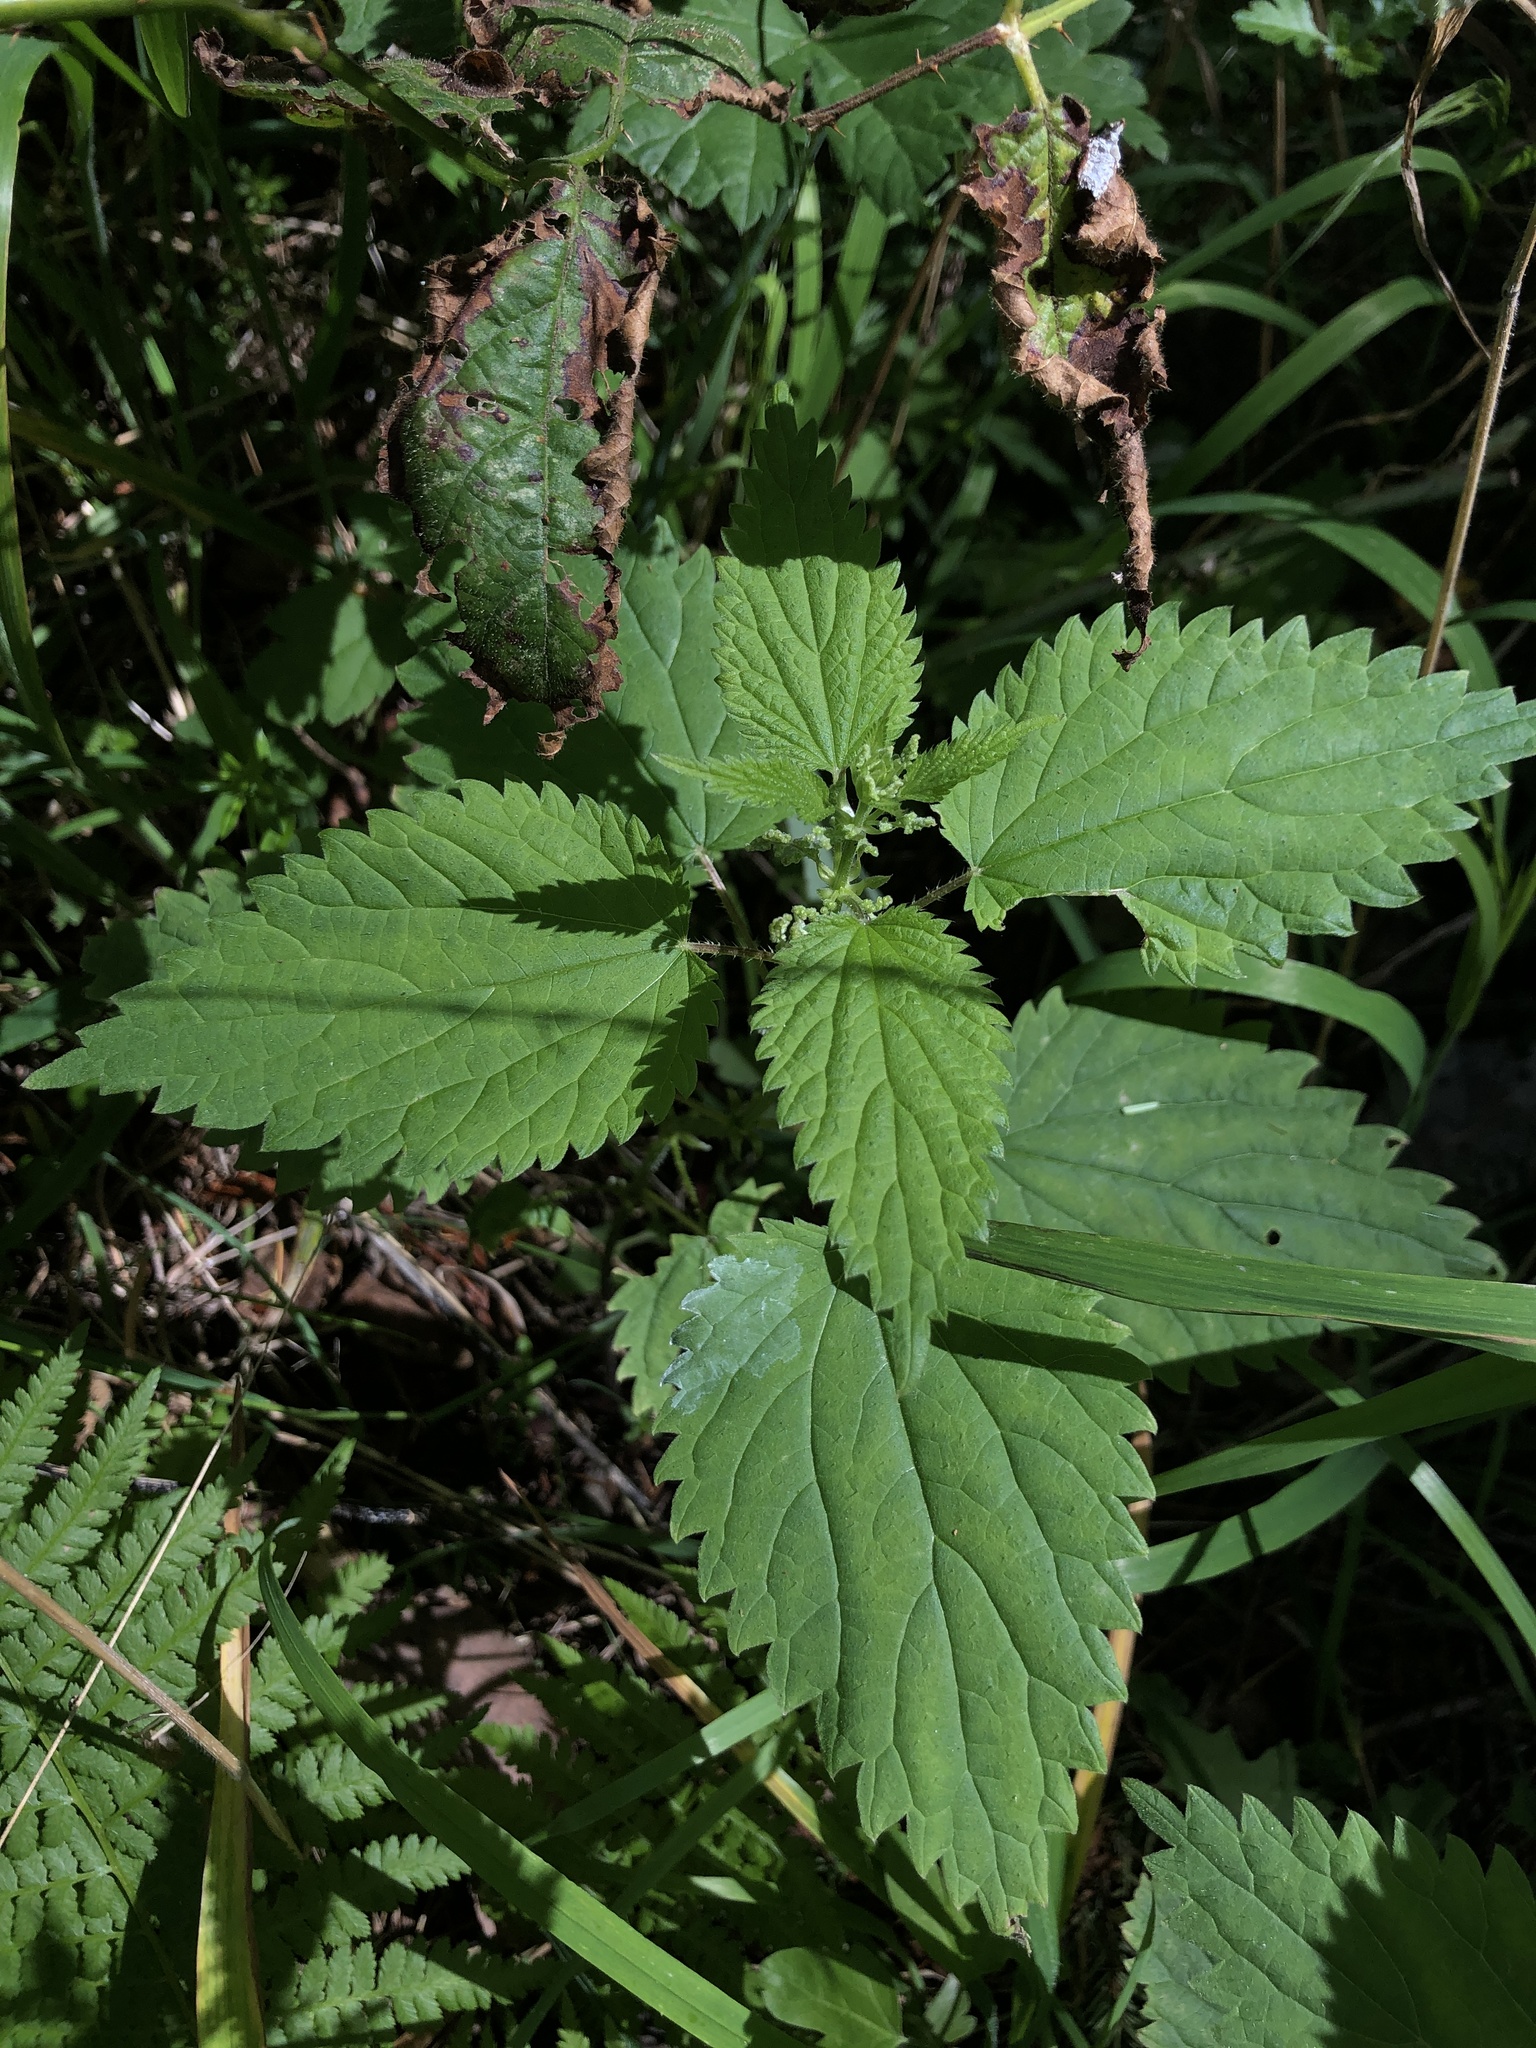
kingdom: Plantae
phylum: Tracheophyta
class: Magnoliopsida
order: Rosales
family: Urticaceae
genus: Urtica
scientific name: Urtica dioica
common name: Common nettle
